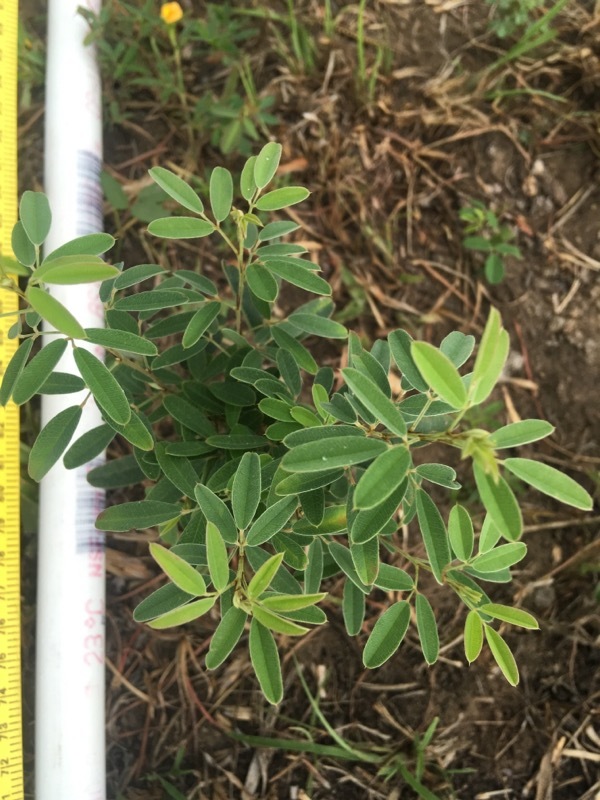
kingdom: Plantae
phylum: Tracheophyta
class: Magnoliopsida
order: Fabales
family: Fabaceae
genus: Lespedeza
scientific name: Lespedeza virginica
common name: Slender bush-clover
